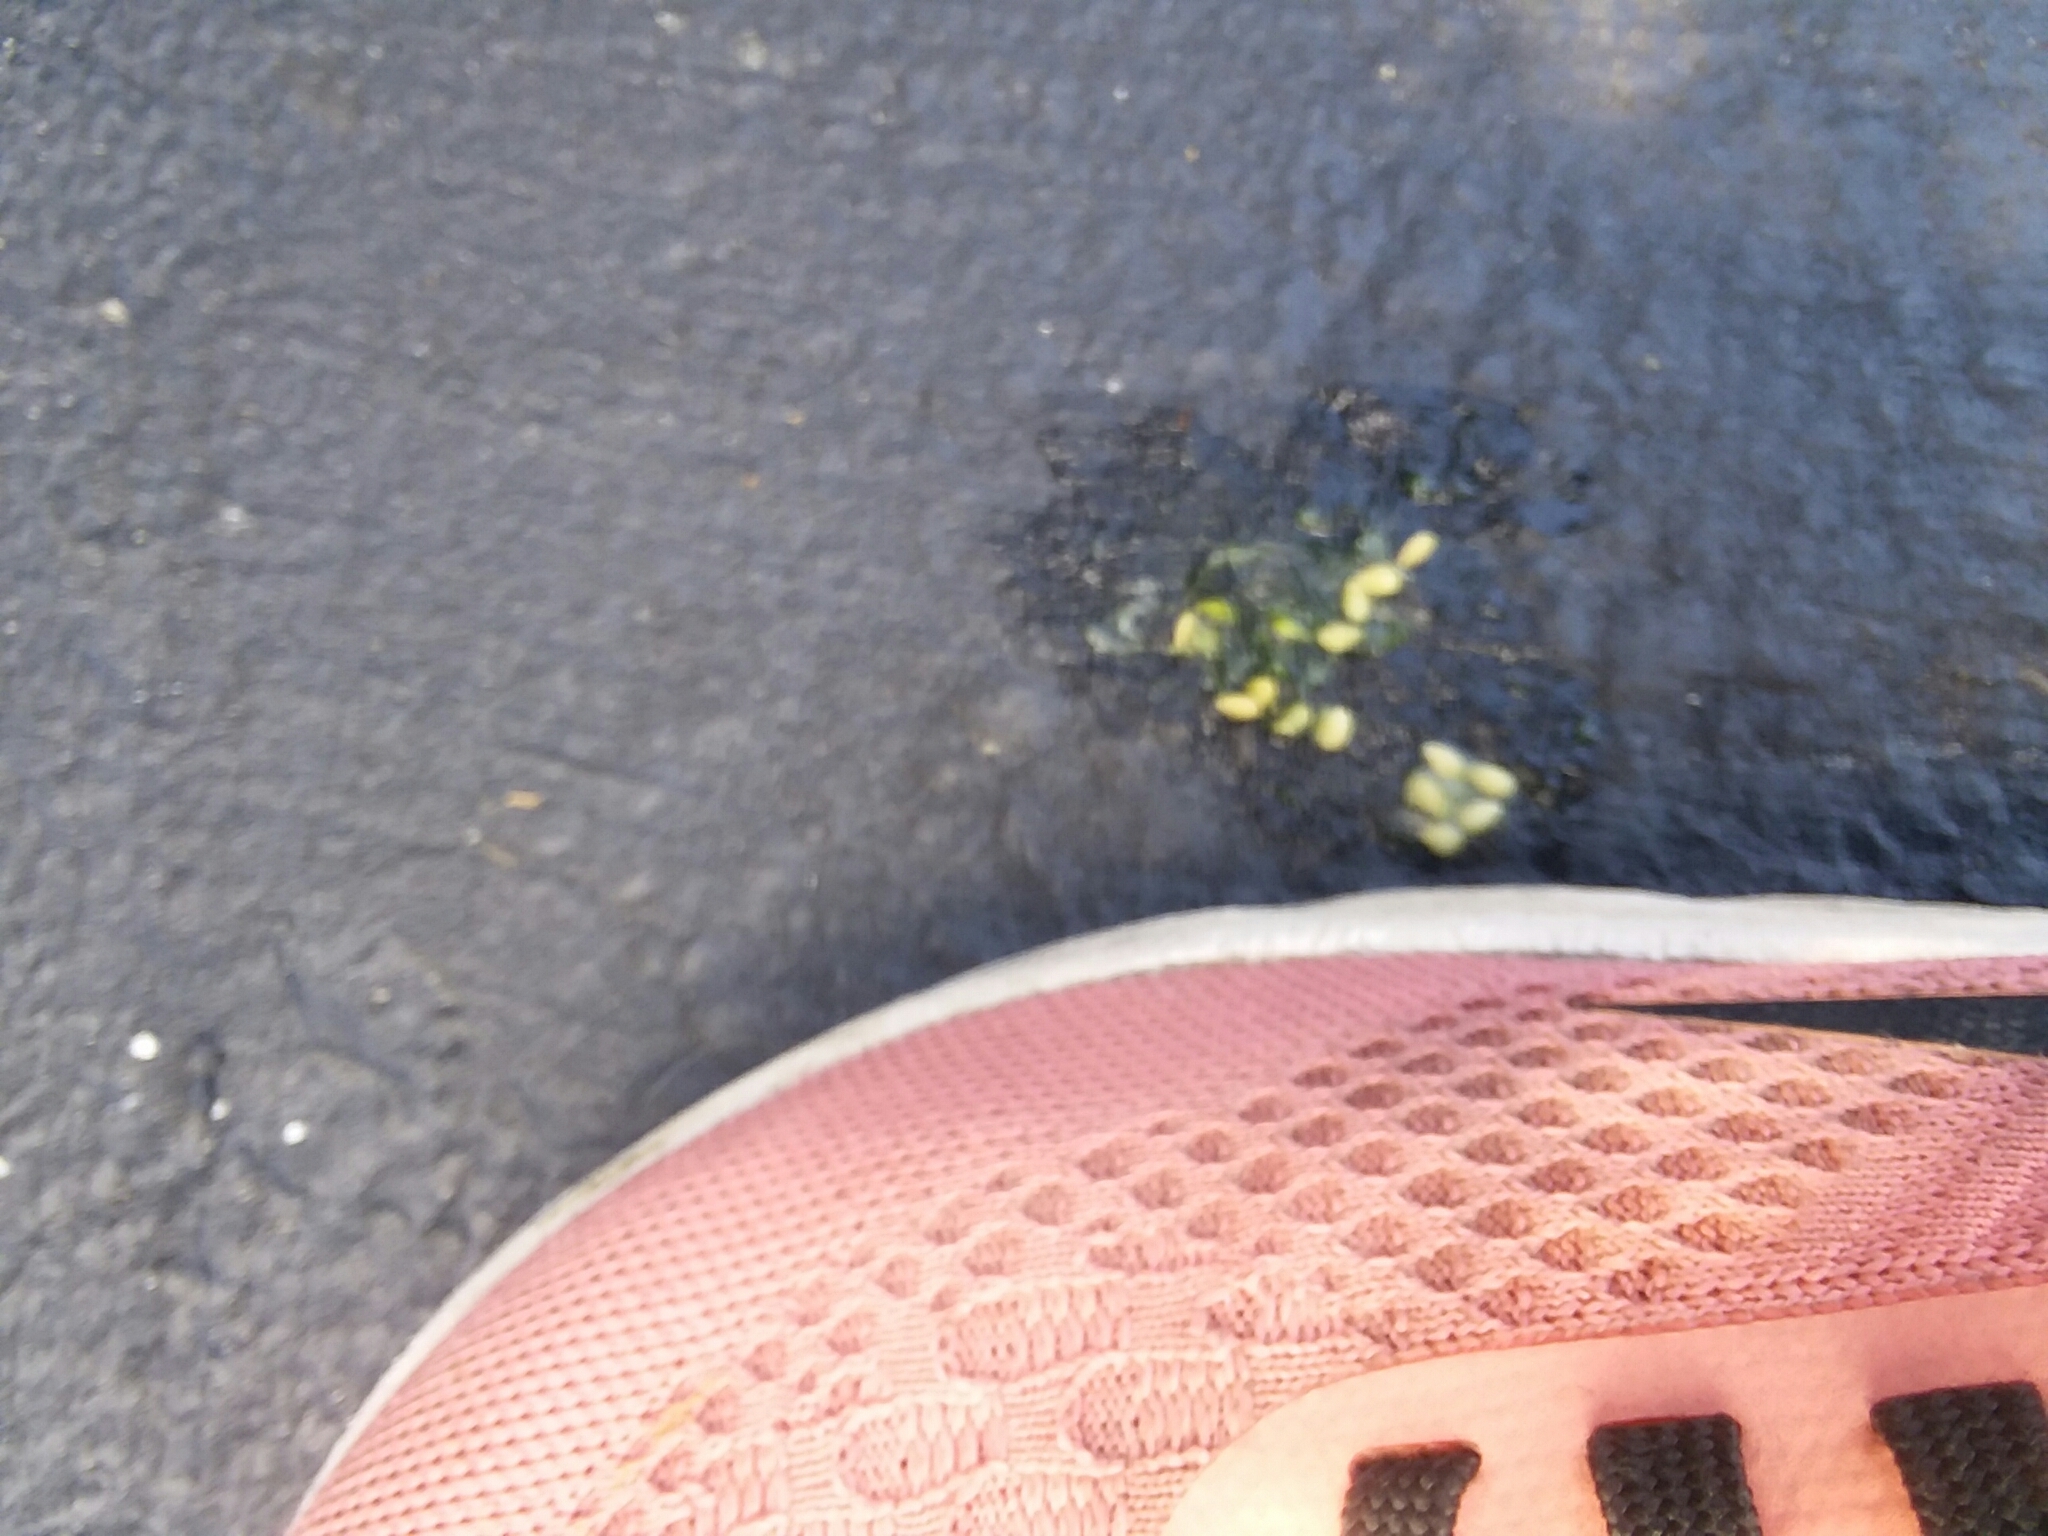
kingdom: Plantae
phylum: Tracheophyta
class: Magnoliopsida
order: Cucurbitales
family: Cucurbitaceae
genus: Melothria
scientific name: Melothria pendula
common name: Creeping-cucumber
